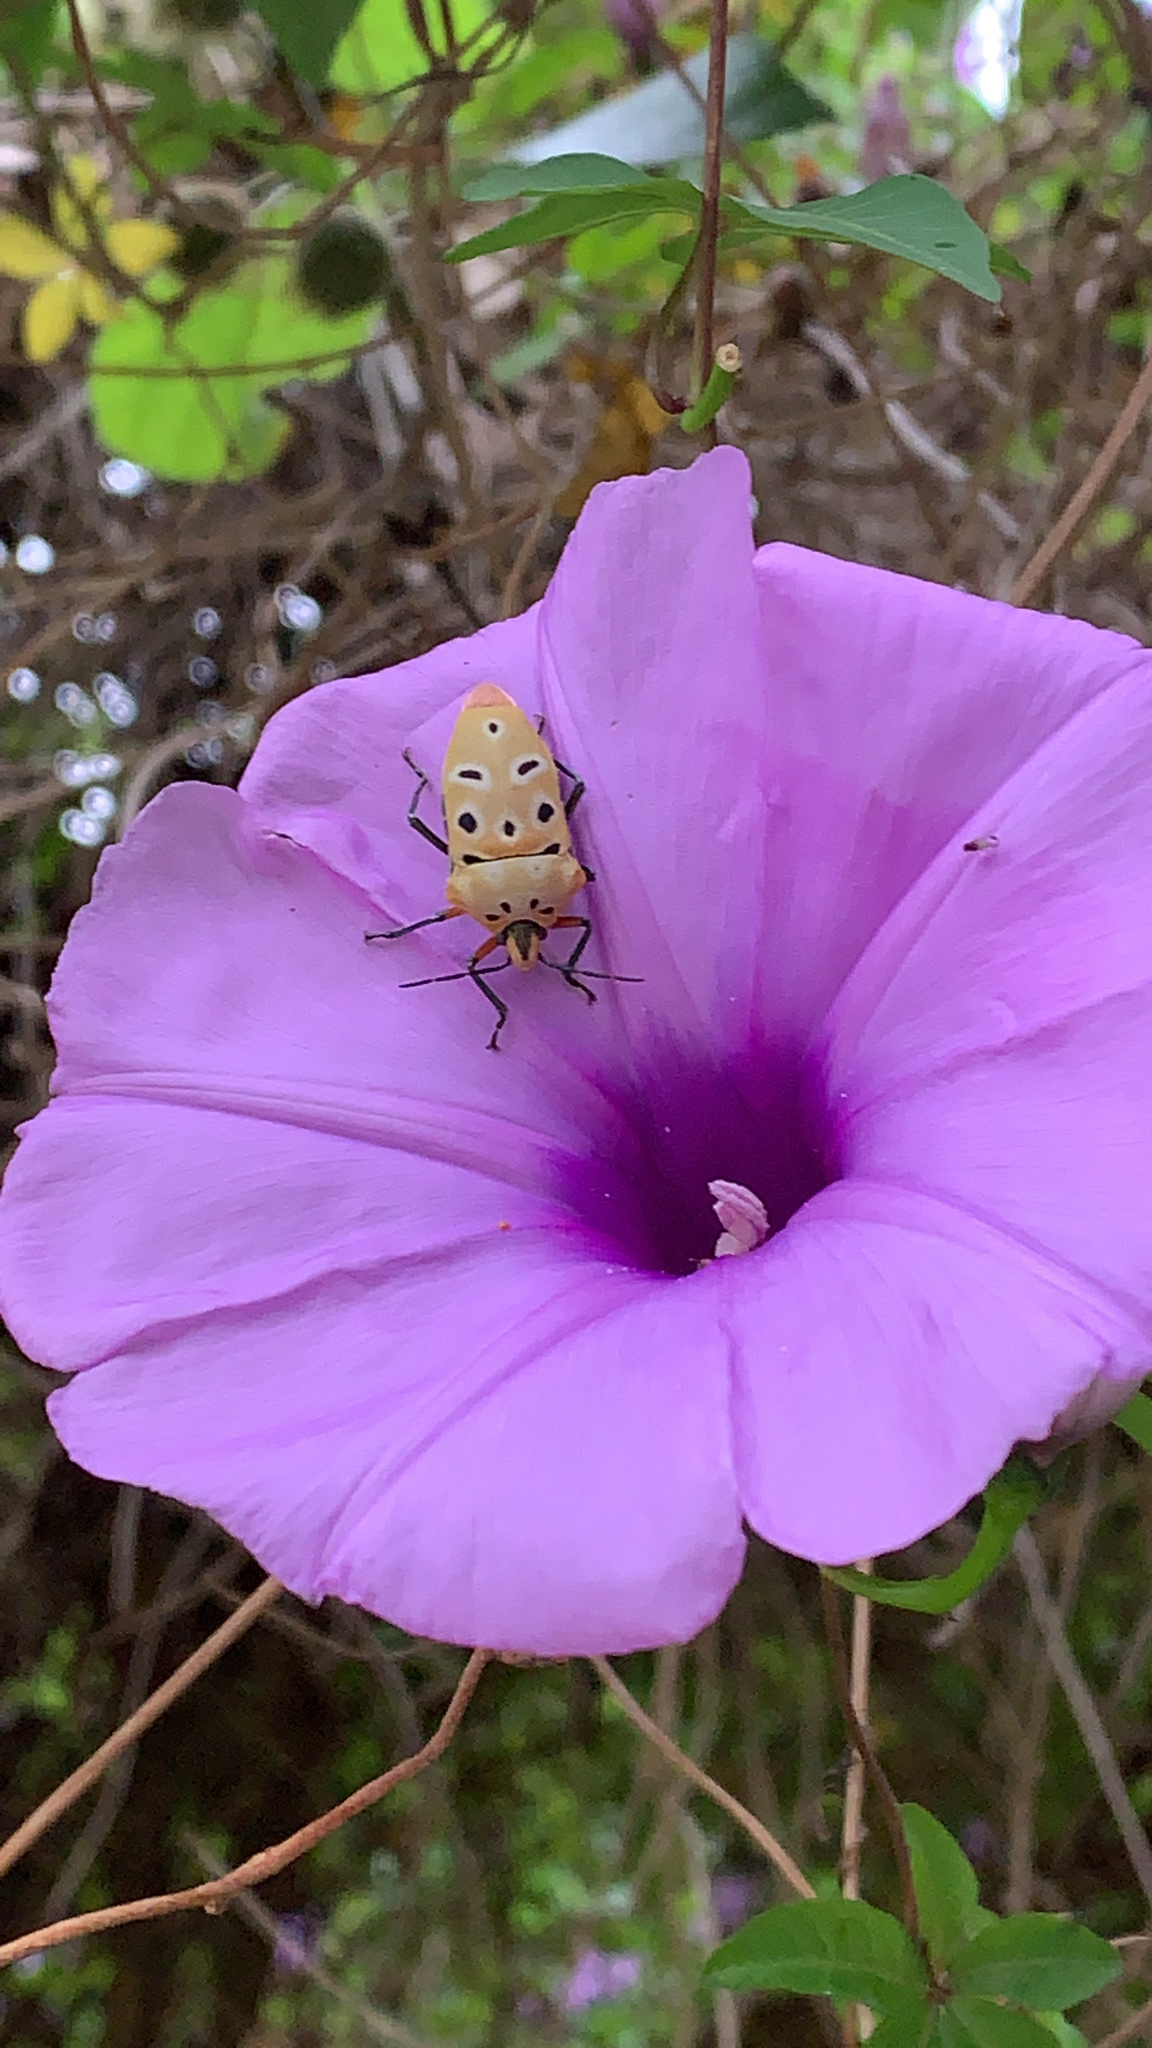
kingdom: Animalia
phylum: Arthropoda
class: Insecta
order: Hemiptera
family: Scutelleridae
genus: Cantao
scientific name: Cantao ocellatus
